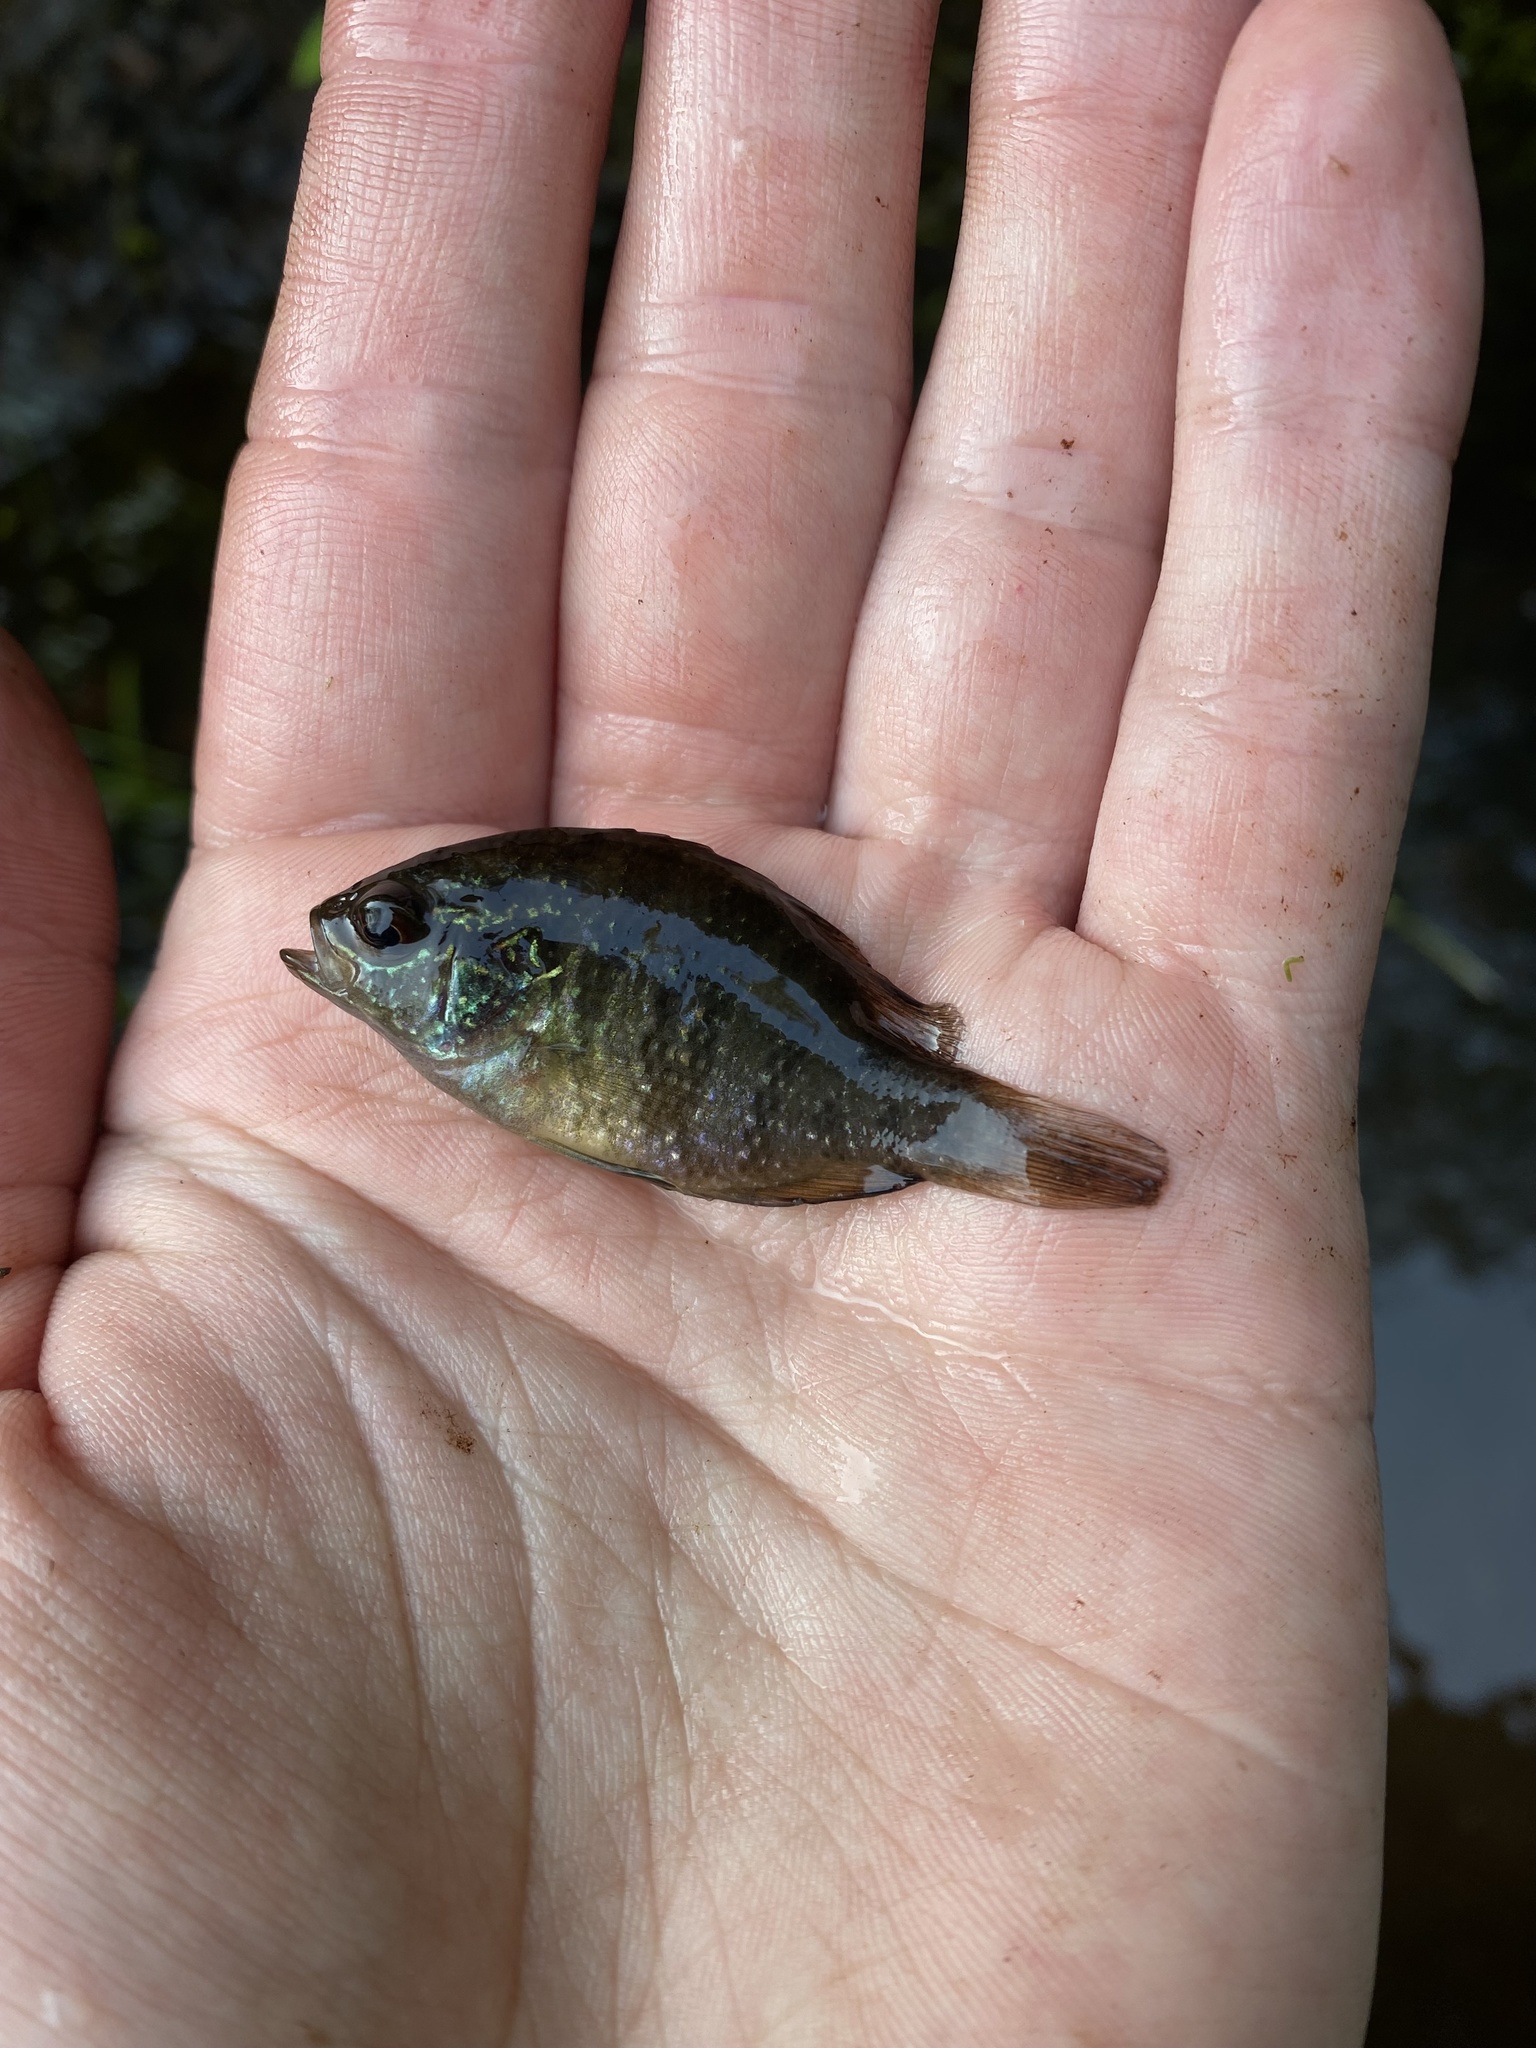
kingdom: Animalia
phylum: Chordata
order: Perciformes
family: Centrarchidae
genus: Enneacanthus
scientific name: Enneacanthus obesus
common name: Banded sunfish
